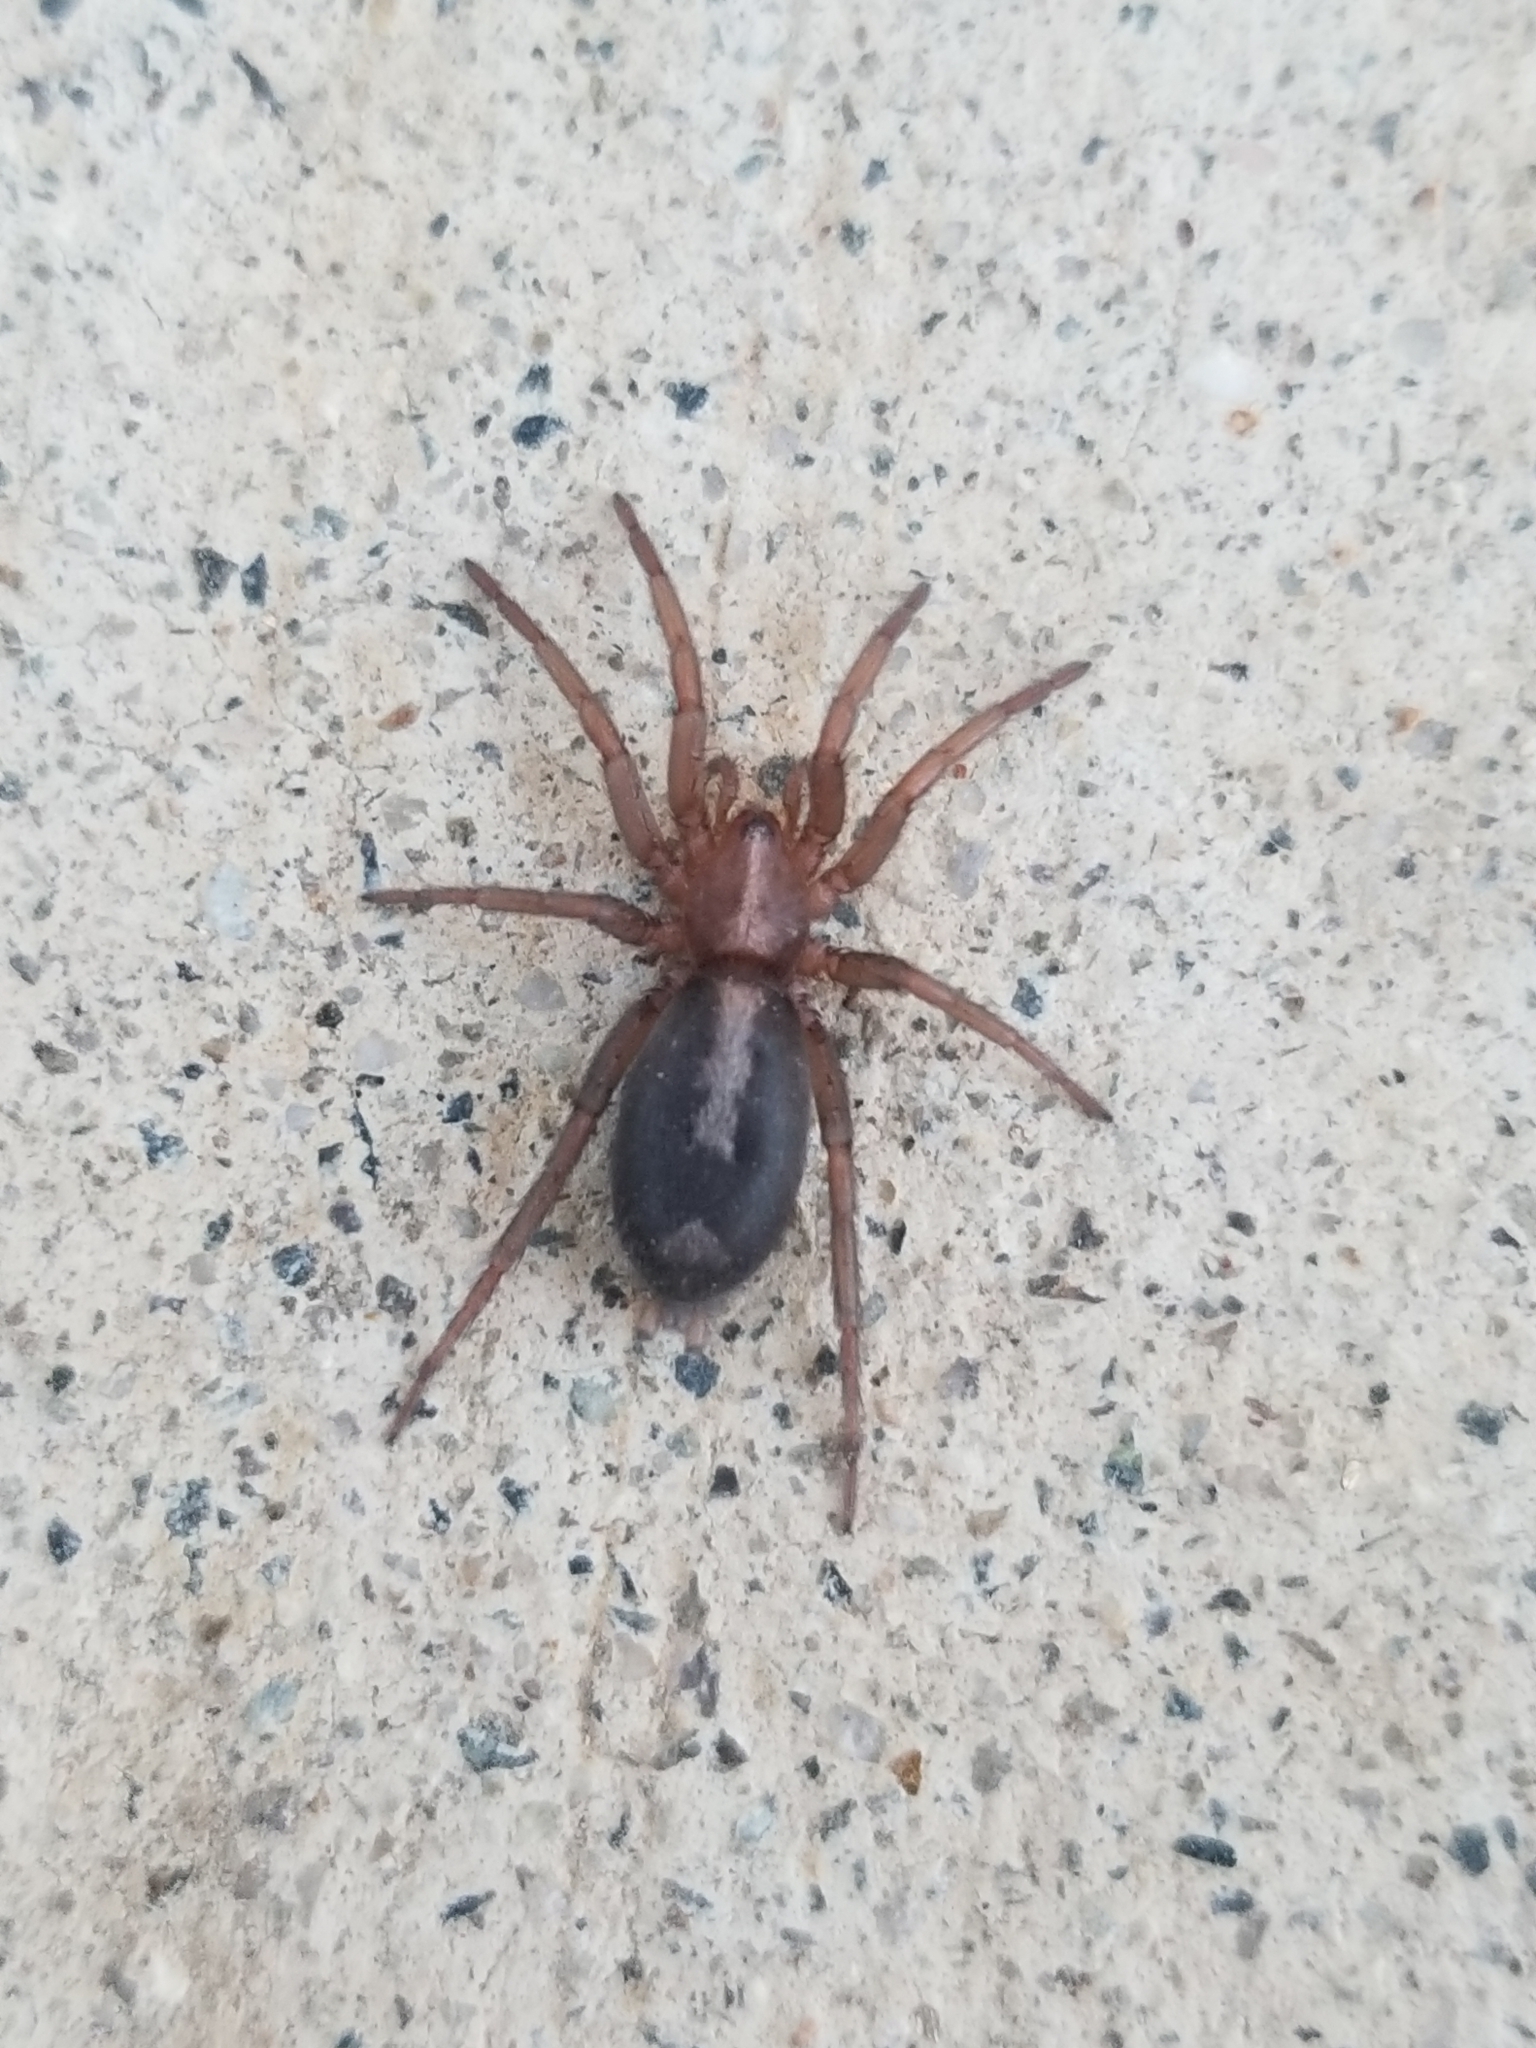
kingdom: Animalia
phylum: Arthropoda
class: Arachnida
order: Araneae
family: Gnaphosidae
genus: Herpyllus
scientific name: Herpyllus propinquus
